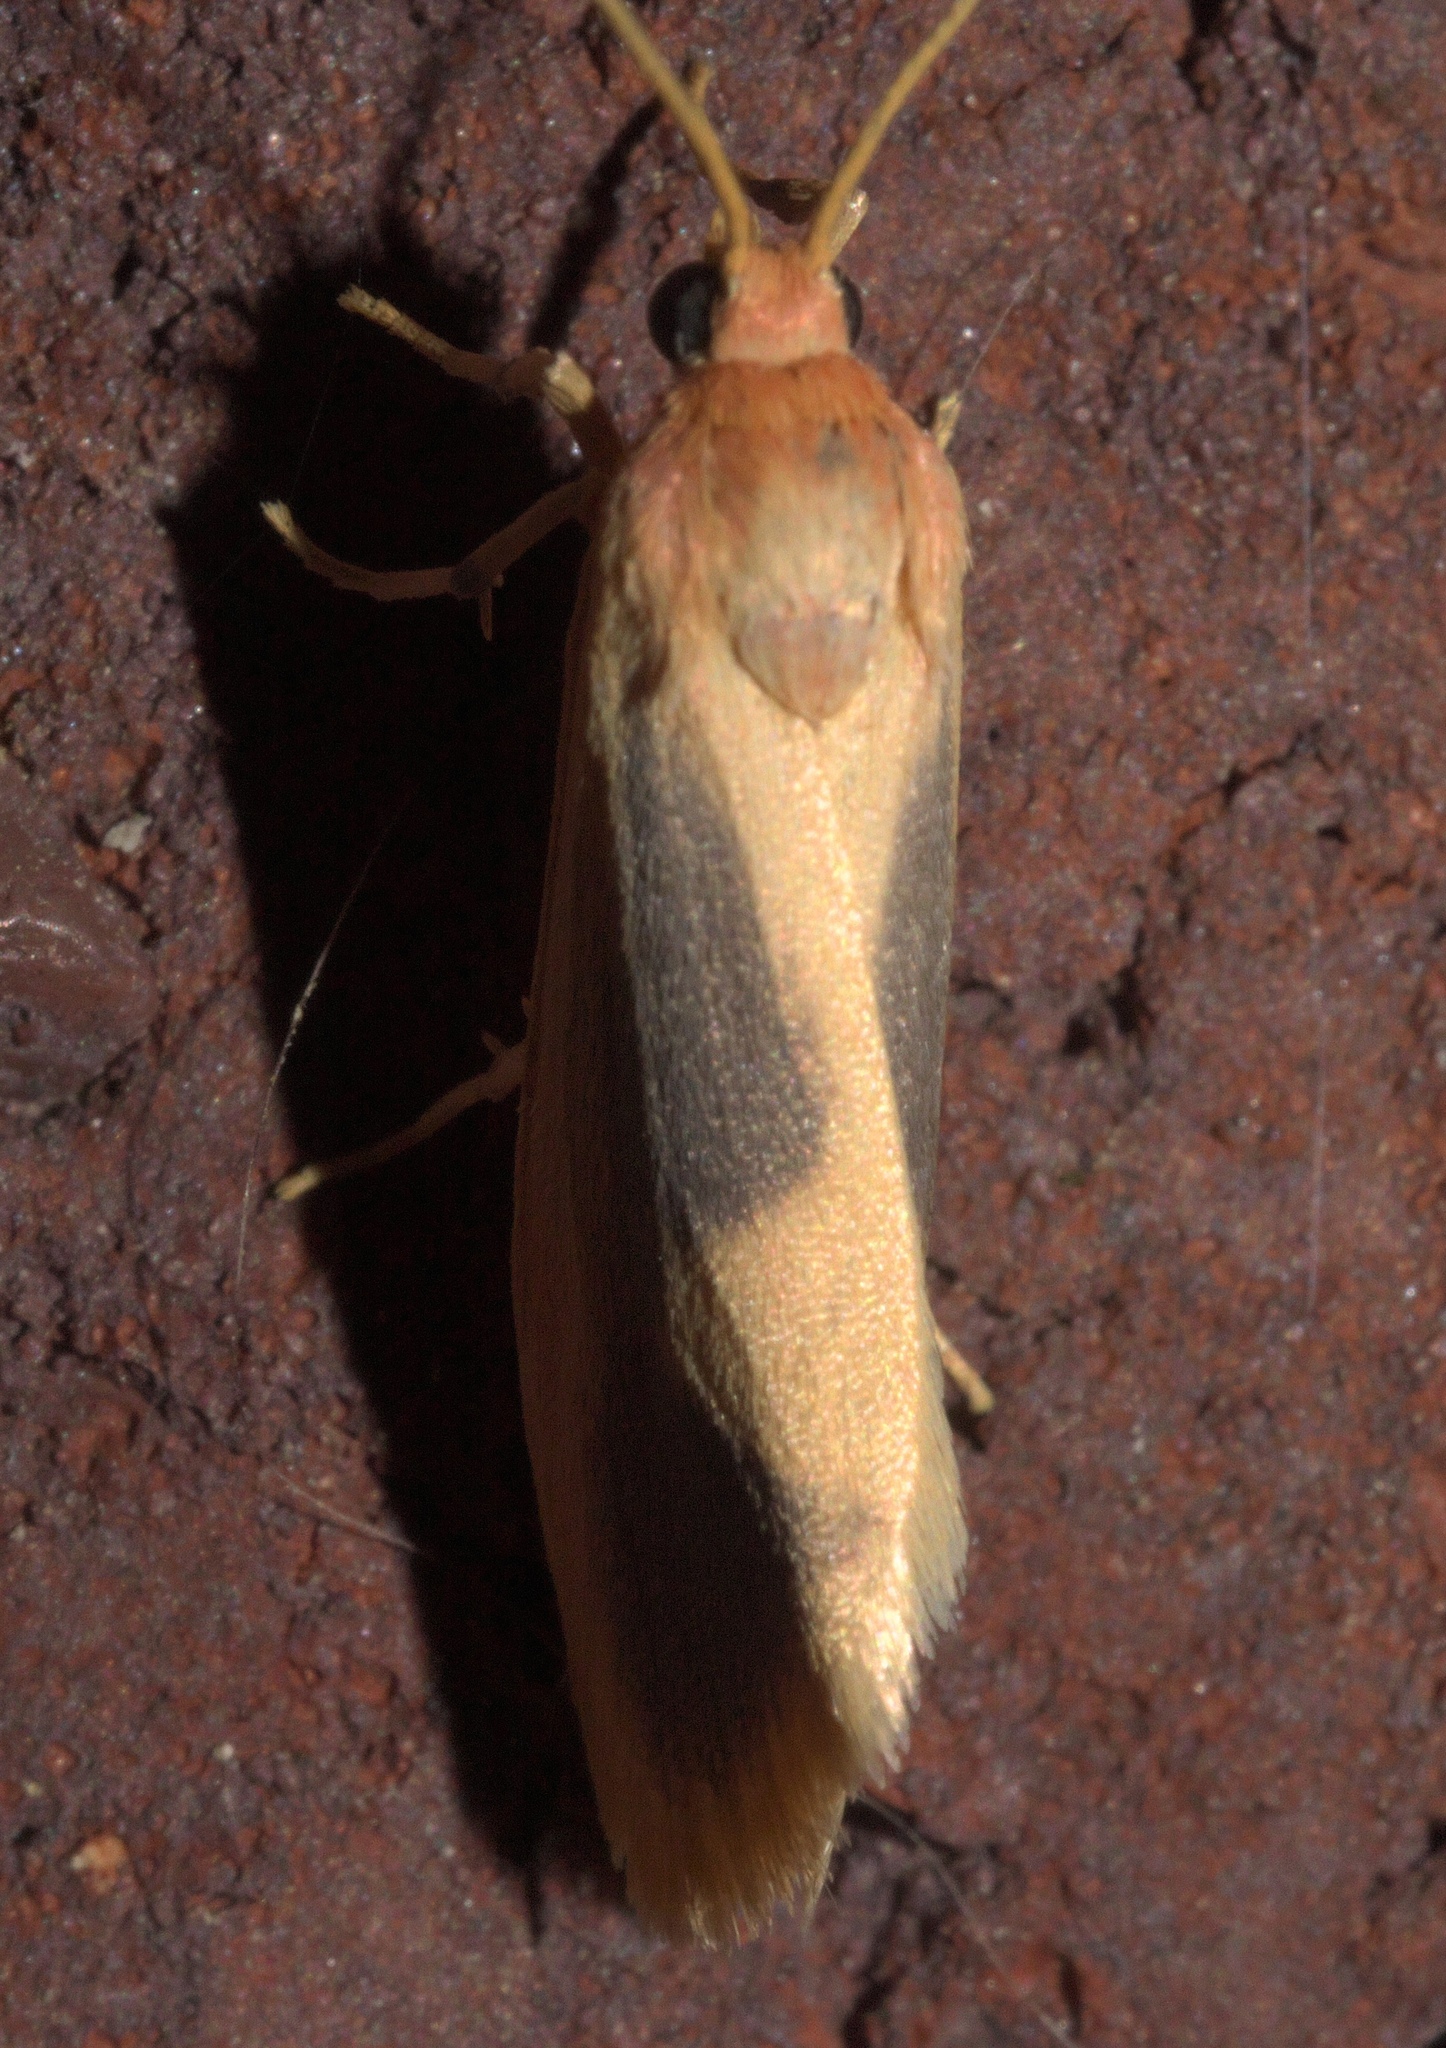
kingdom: Animalia
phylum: Arthropoda
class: Insecta
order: Lepidoptera
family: Erebidae
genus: Cisthene
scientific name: Cisthene plumbea
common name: Lead colored lichen moth
